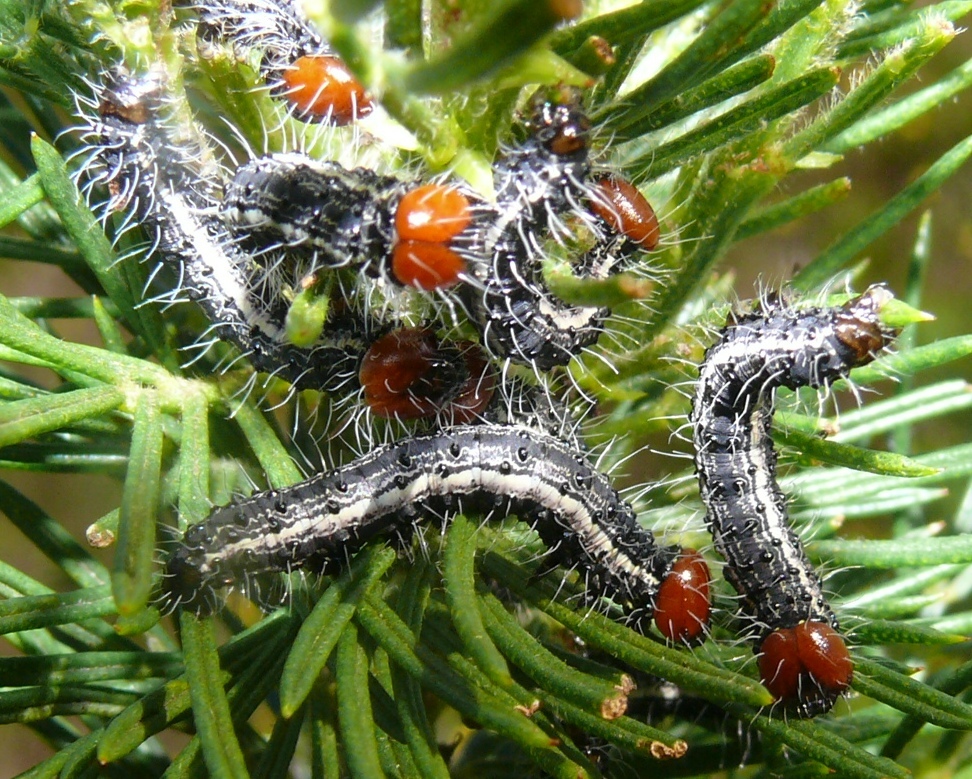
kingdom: Plantae
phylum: Tracheophyta
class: Magnoliopsida
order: Fabales
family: Fabaceae
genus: Psoralea
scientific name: Psoralea pinnata
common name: African scurfpea
